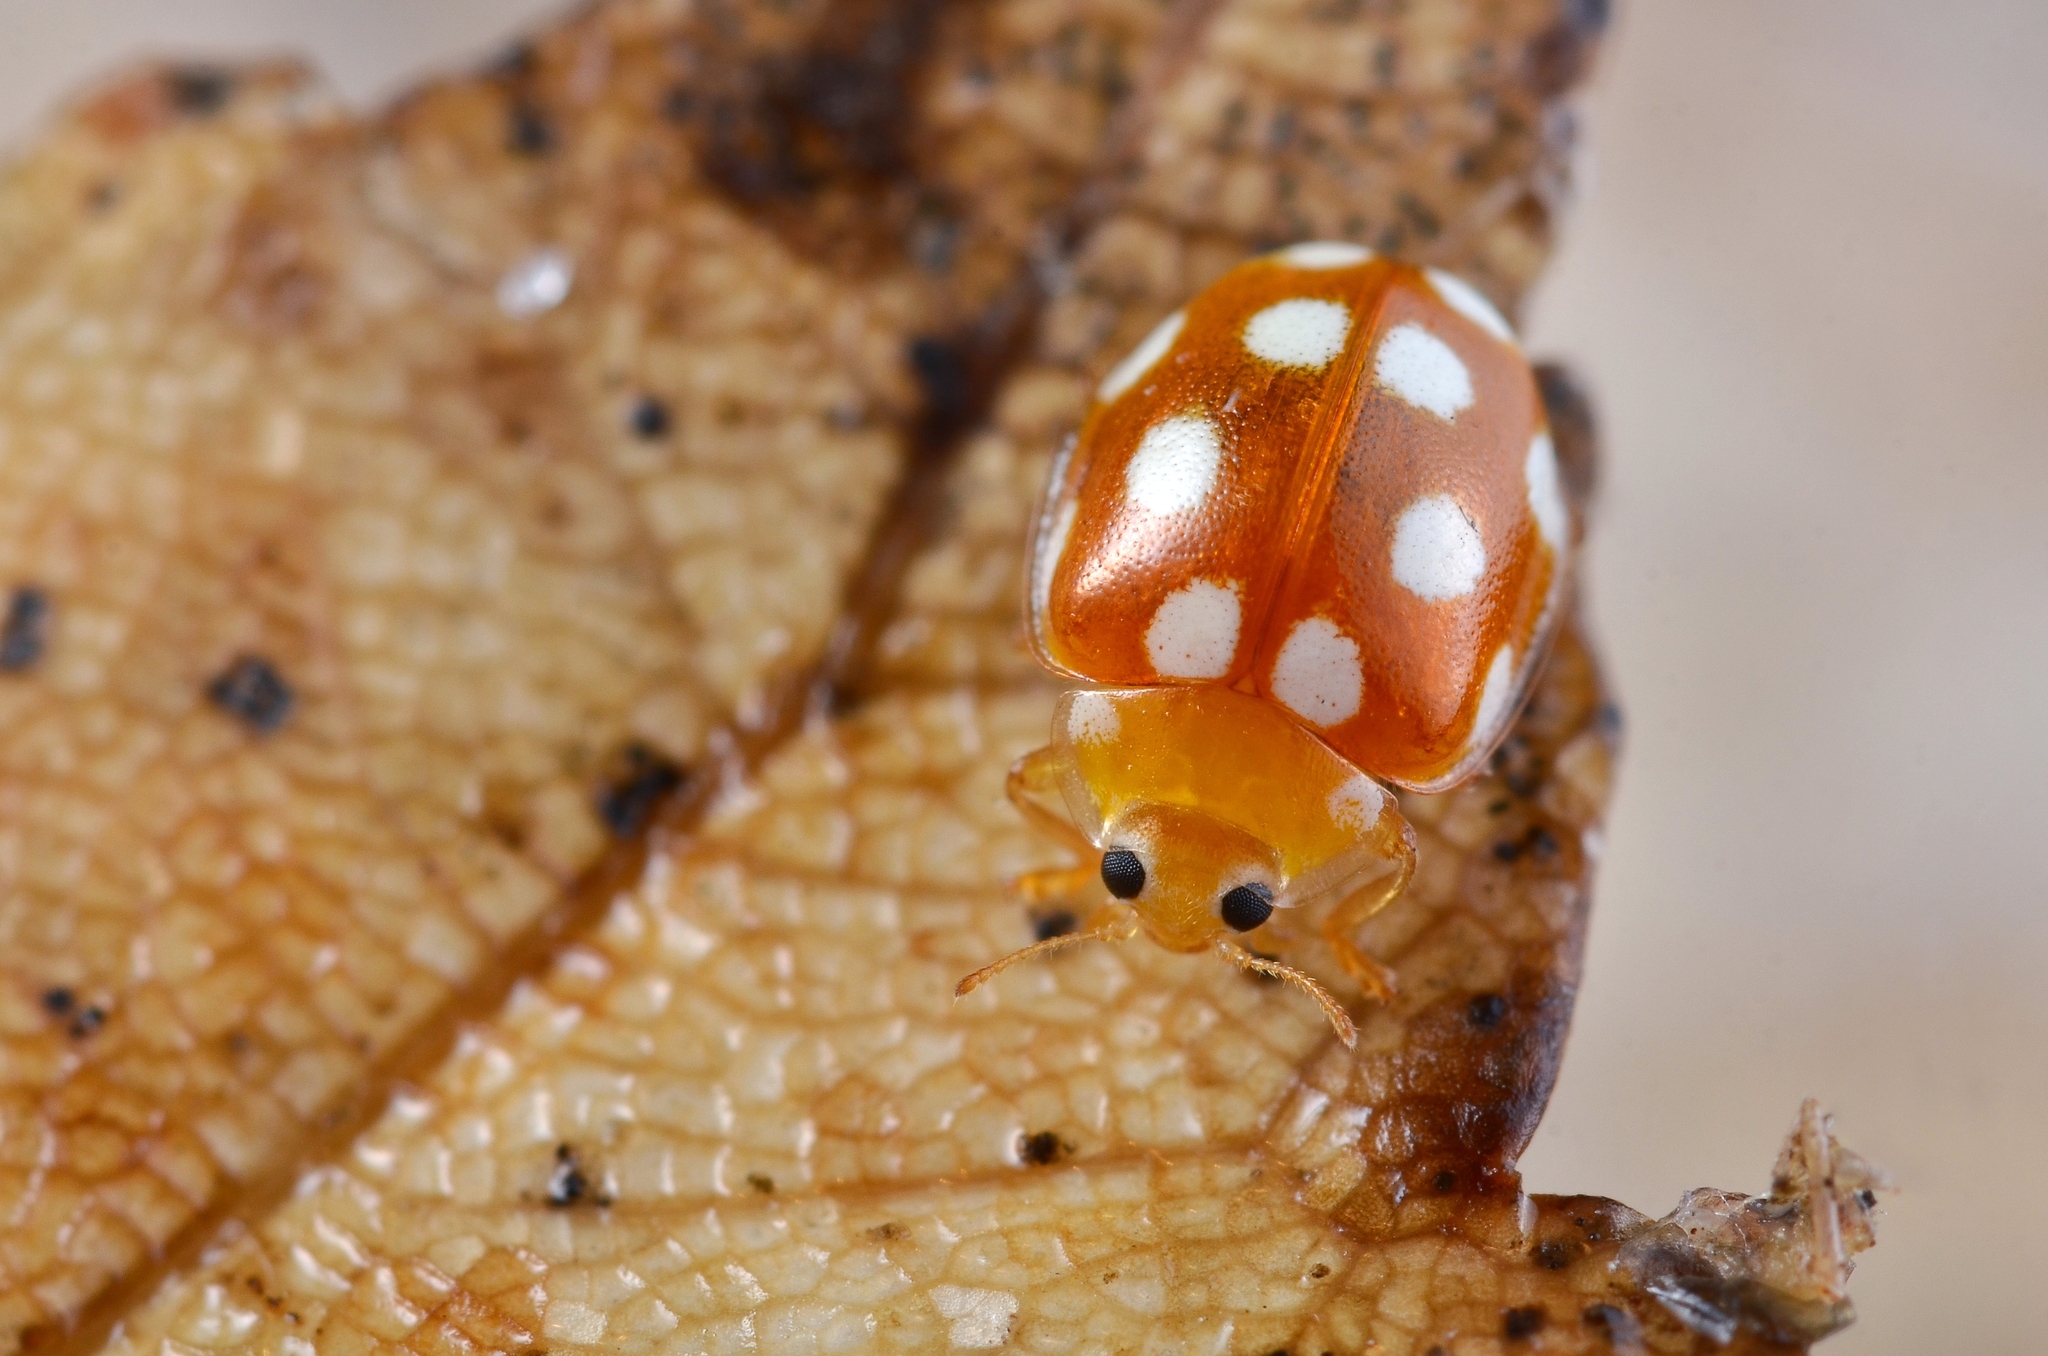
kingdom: Animalia
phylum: Arthropoda
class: Insecta
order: Coleoptera
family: Coccinellidae
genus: Vibidia
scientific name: Vibidia duodecimguttata
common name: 12-spot ladybird
